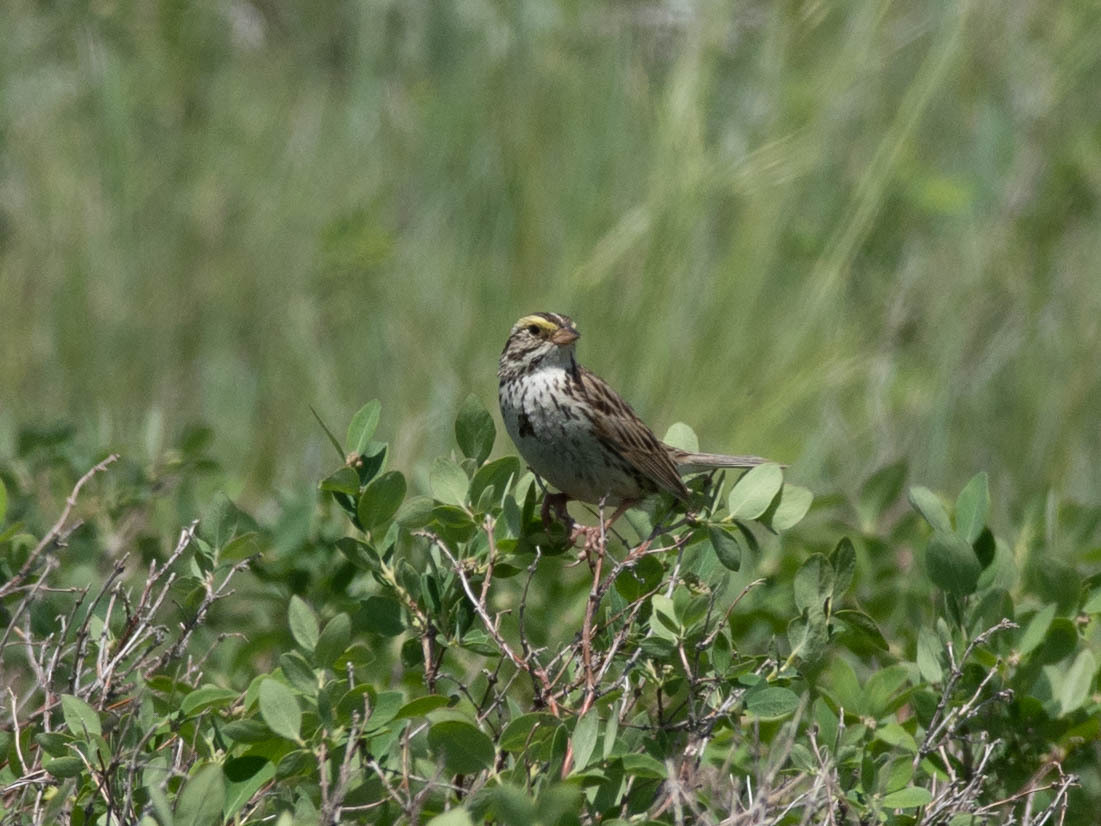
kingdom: Animalia
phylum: Chordata
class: Aves
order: Passeriformes
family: Passerellidae
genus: Passerculus
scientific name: Passerculus sandwichensis
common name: Savannah sparrow
